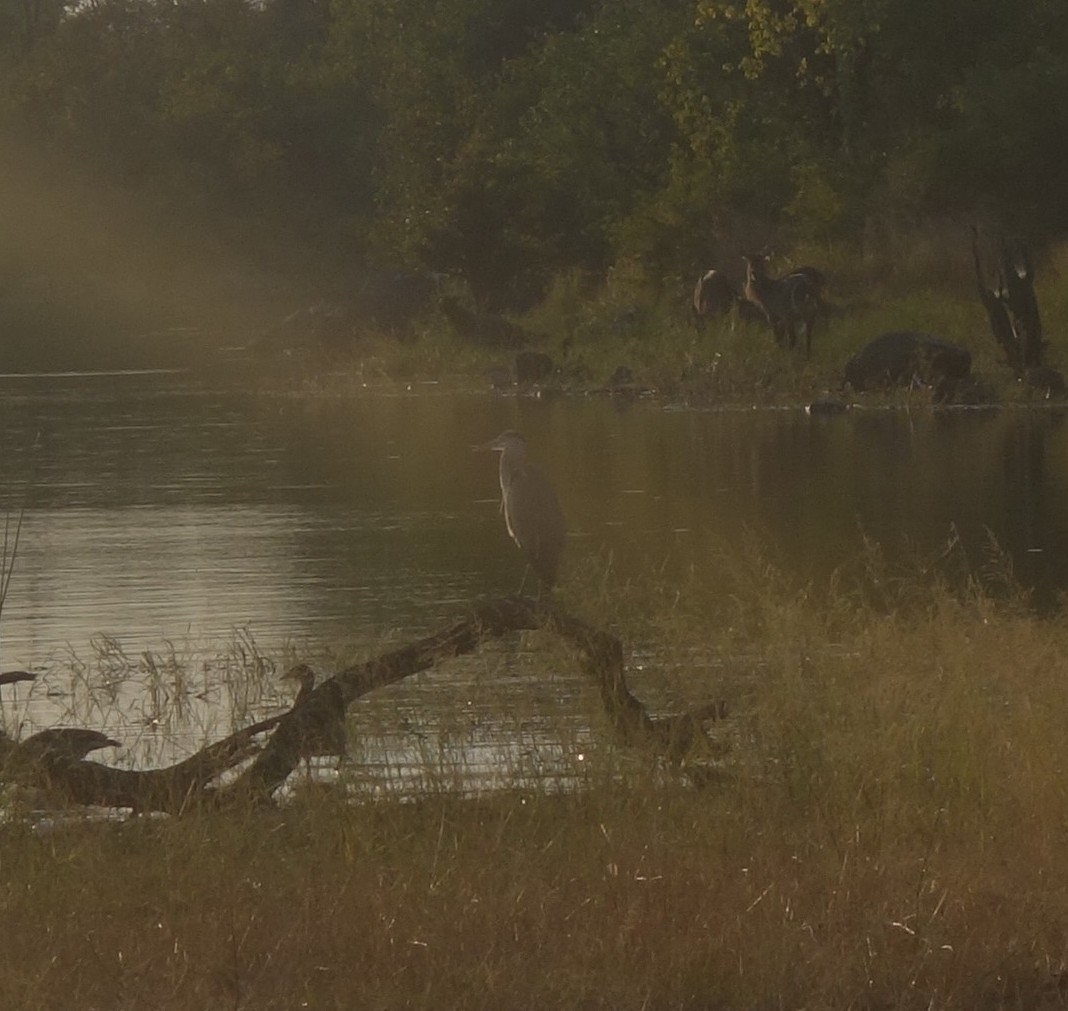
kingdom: Animalia
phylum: Chordata
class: Aves
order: Pelecaniformes
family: Ardeidae
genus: Ardea
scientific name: Ardea cinerea
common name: Grey heron
